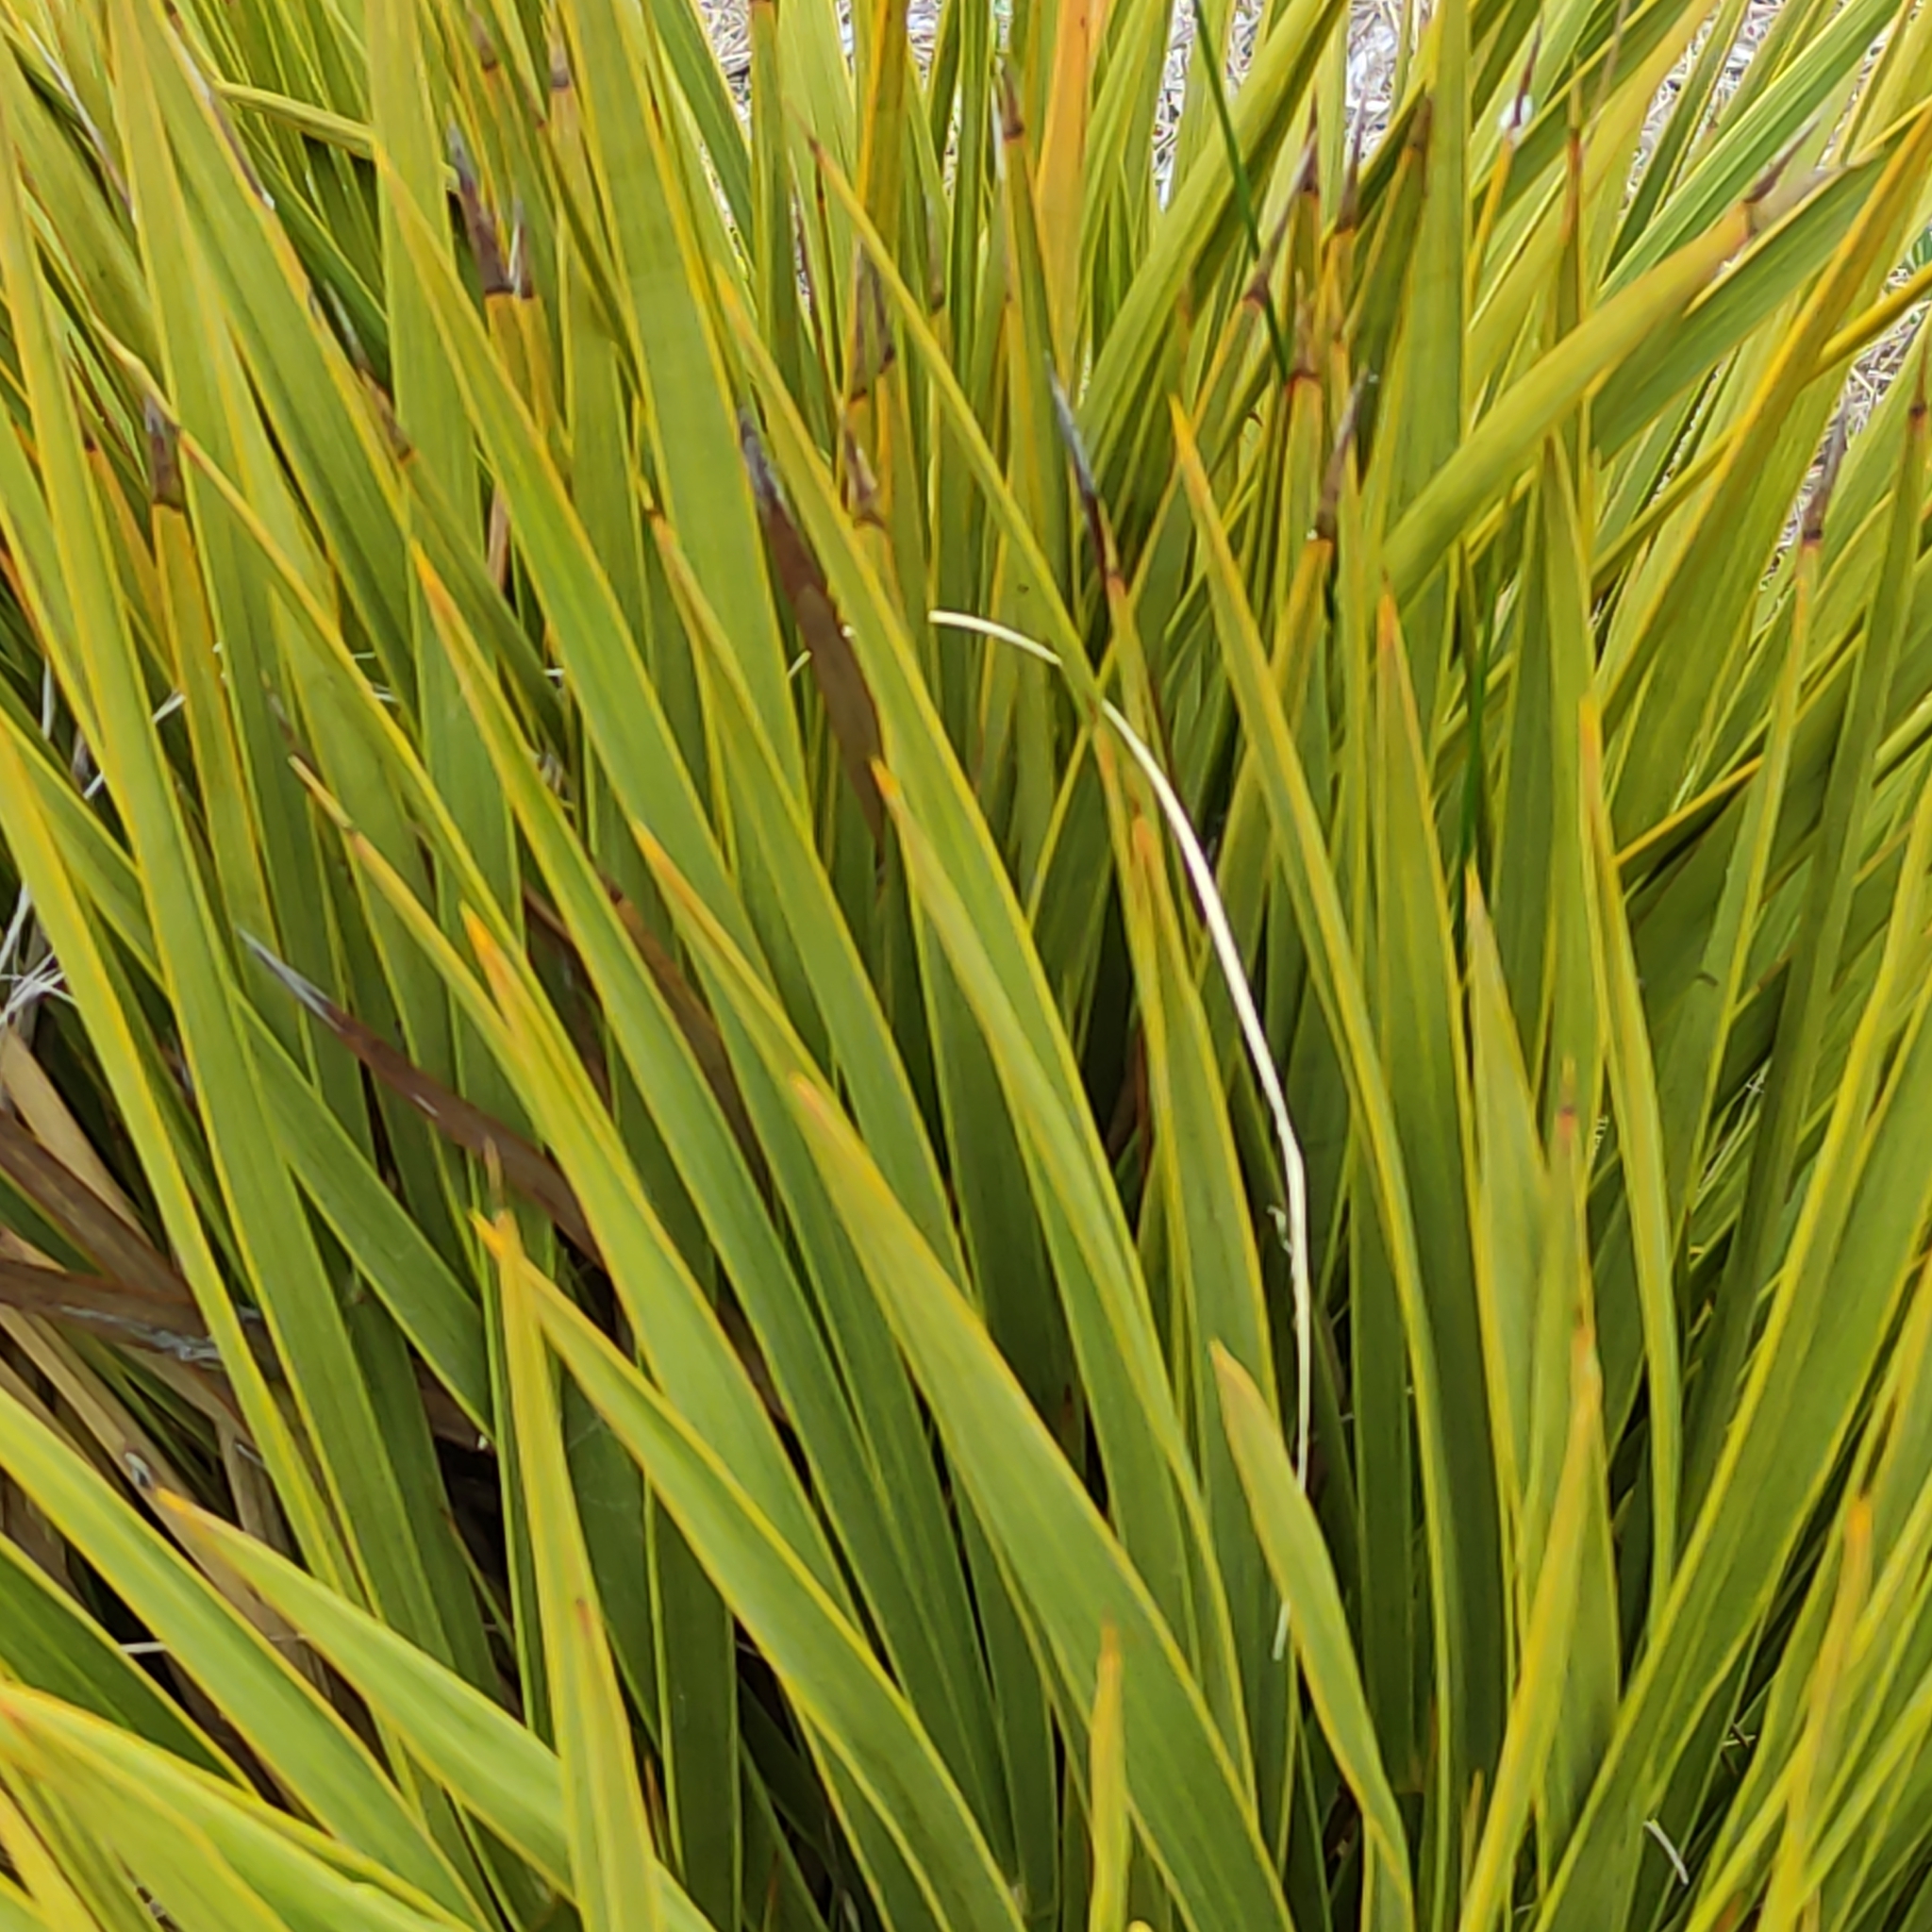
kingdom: Plantae
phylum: Tracheophyta
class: Magnoliopsida
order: Apiales
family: Apiaceae
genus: Aciphylla
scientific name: Aciphylla aurea
